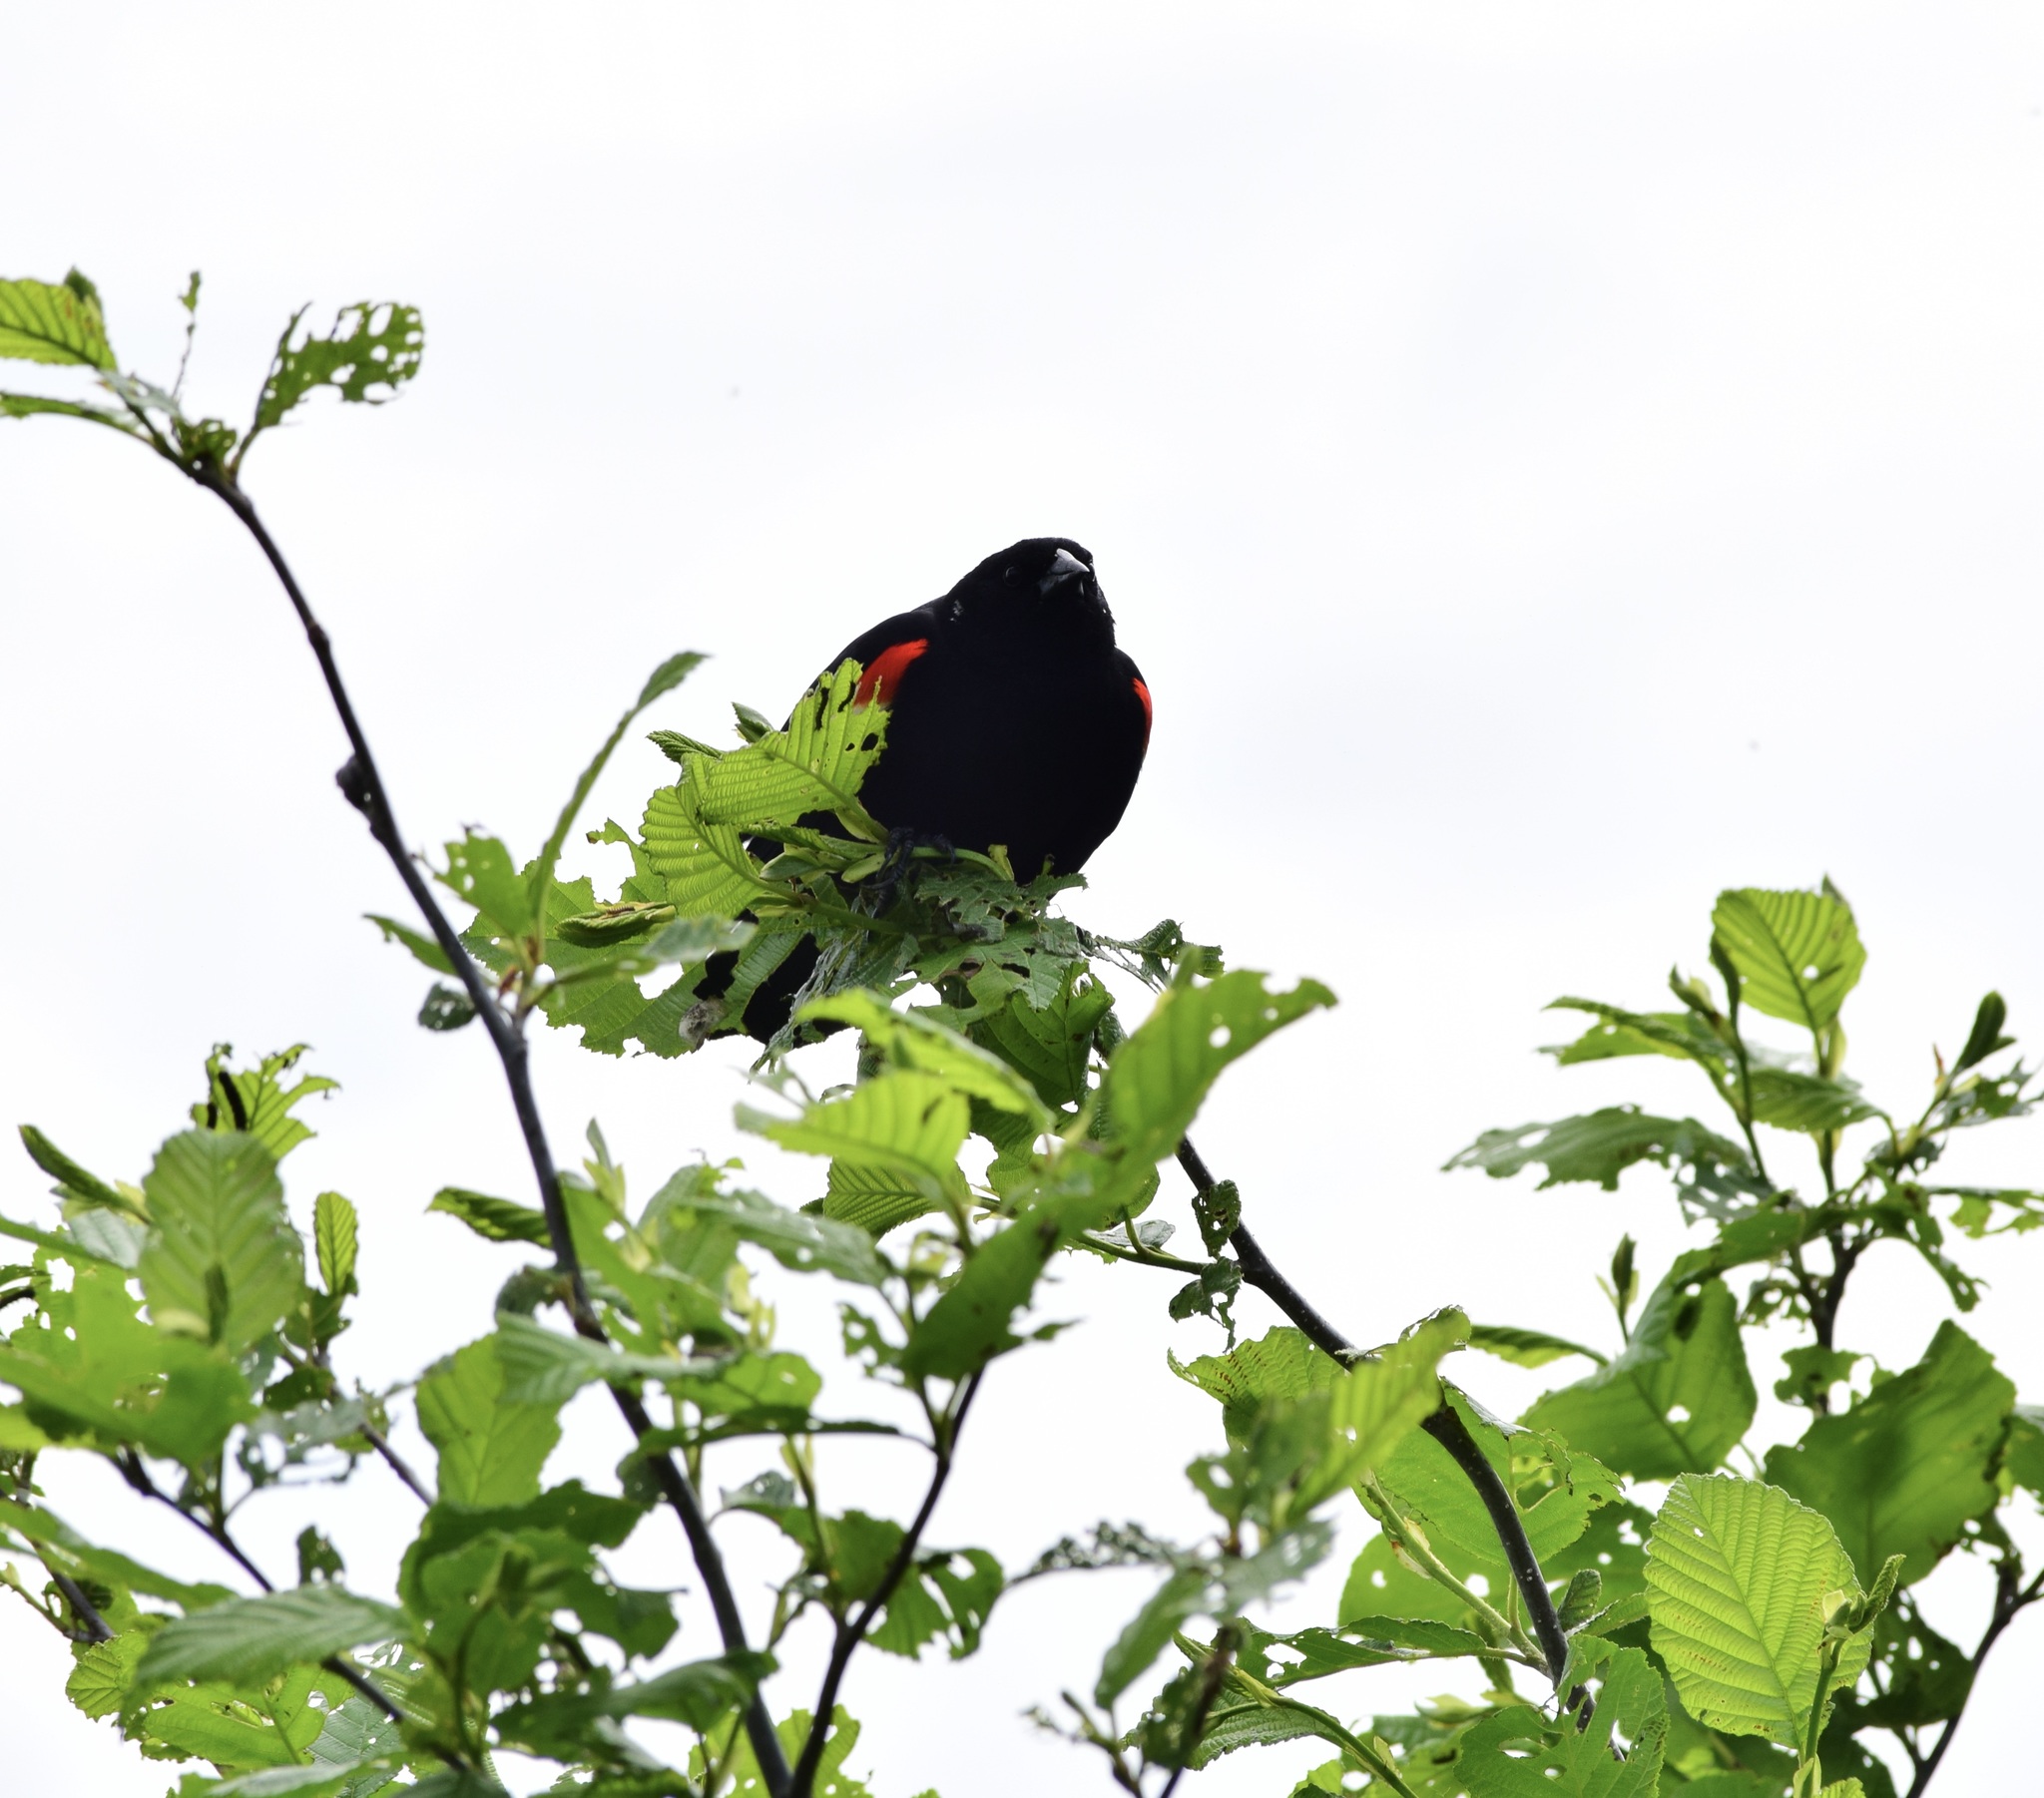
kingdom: Animalia
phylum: Chordata
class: Aves
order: Passeriformes
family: Icteridae
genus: Agelaius
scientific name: Agelaius phoeniceus
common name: Red-winged blackbird
